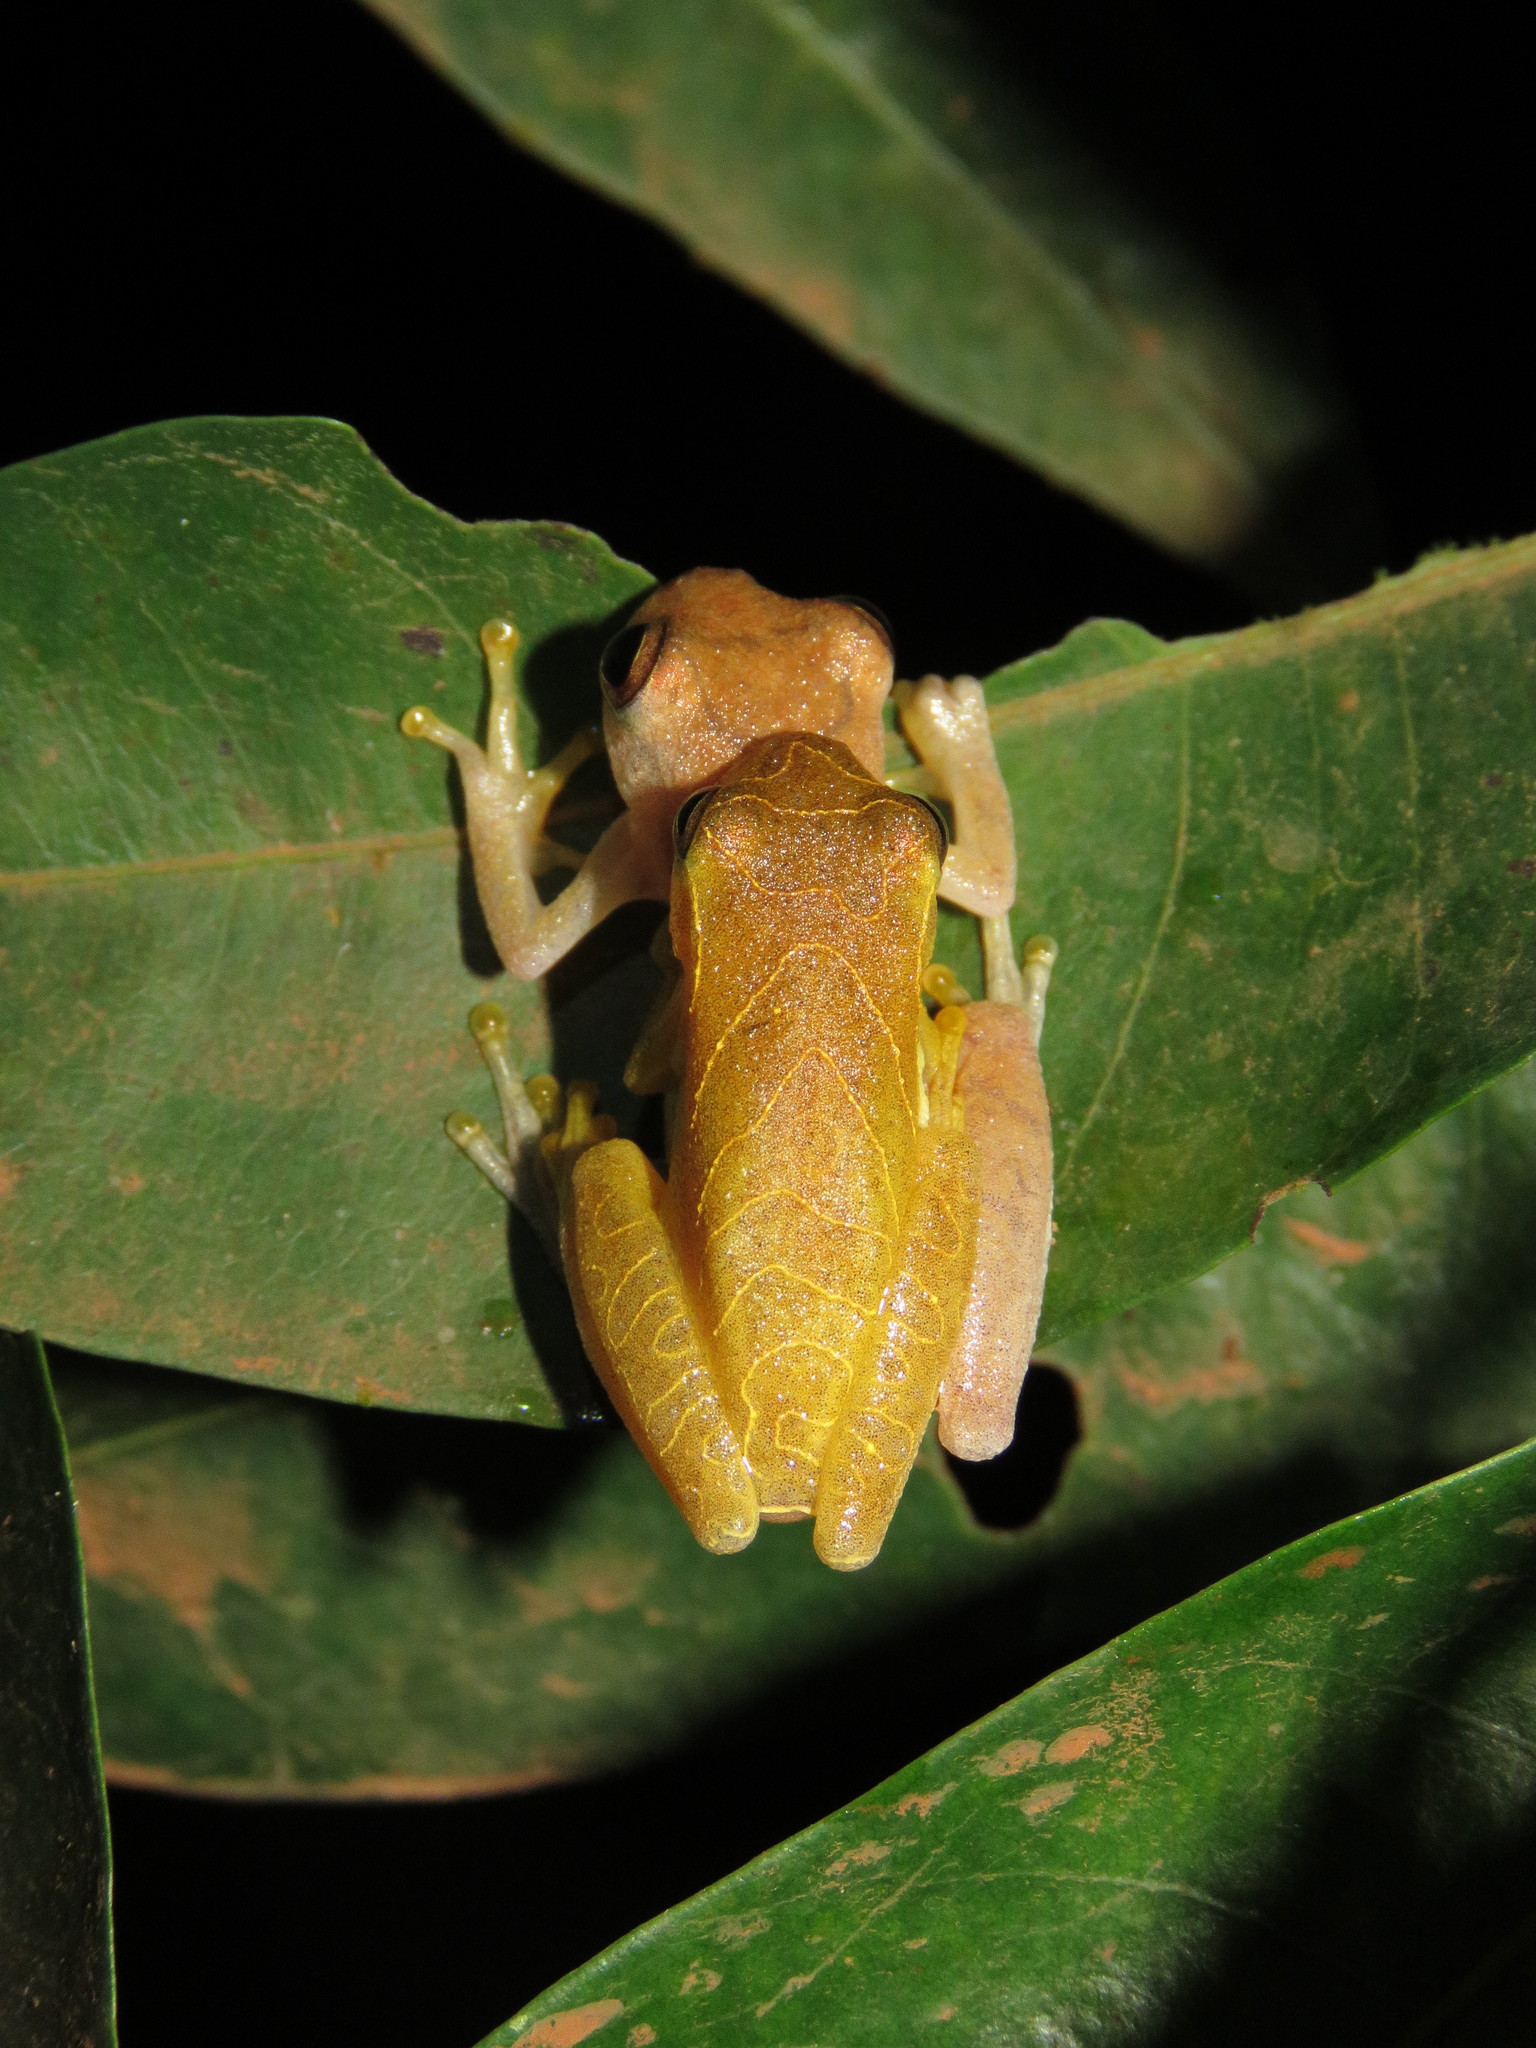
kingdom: Animalia
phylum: Chordata
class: Amphibia
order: Anura
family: Hylidae
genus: Dendropsophus
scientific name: Dendropsophus minutus
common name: Lesser treefrog
